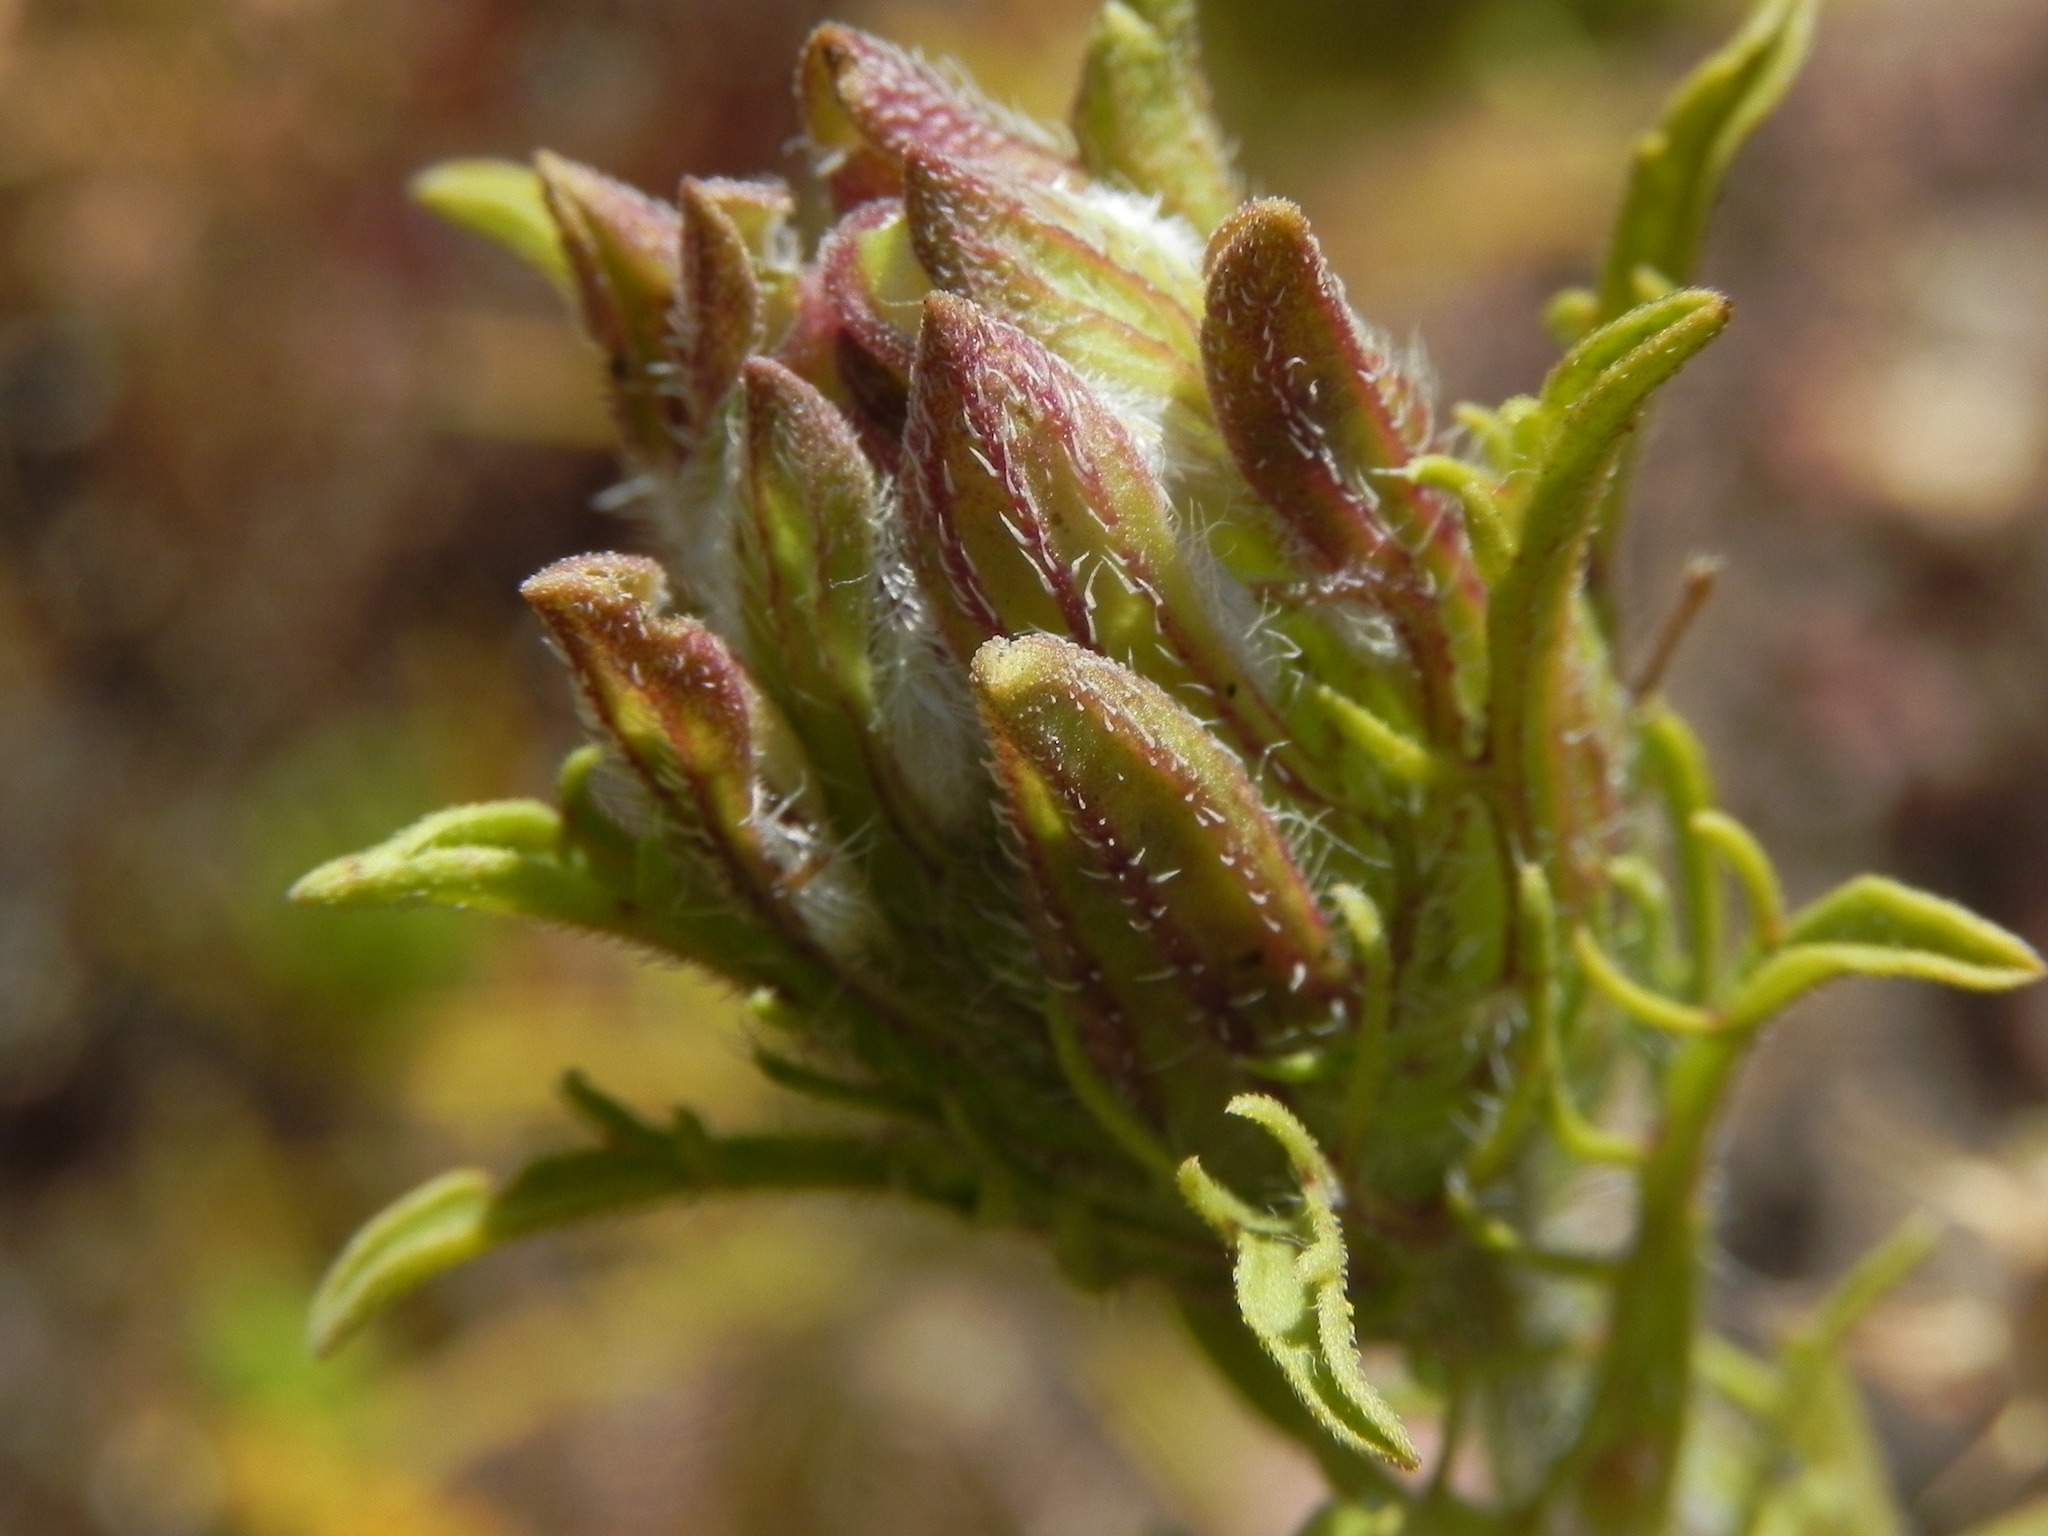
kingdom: Plantae
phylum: Tracheophyta
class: Magnoliopsida
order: Lamiales
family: Orobanchaceae
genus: Dicranostegia
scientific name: Dicranostegia orcuttiana
